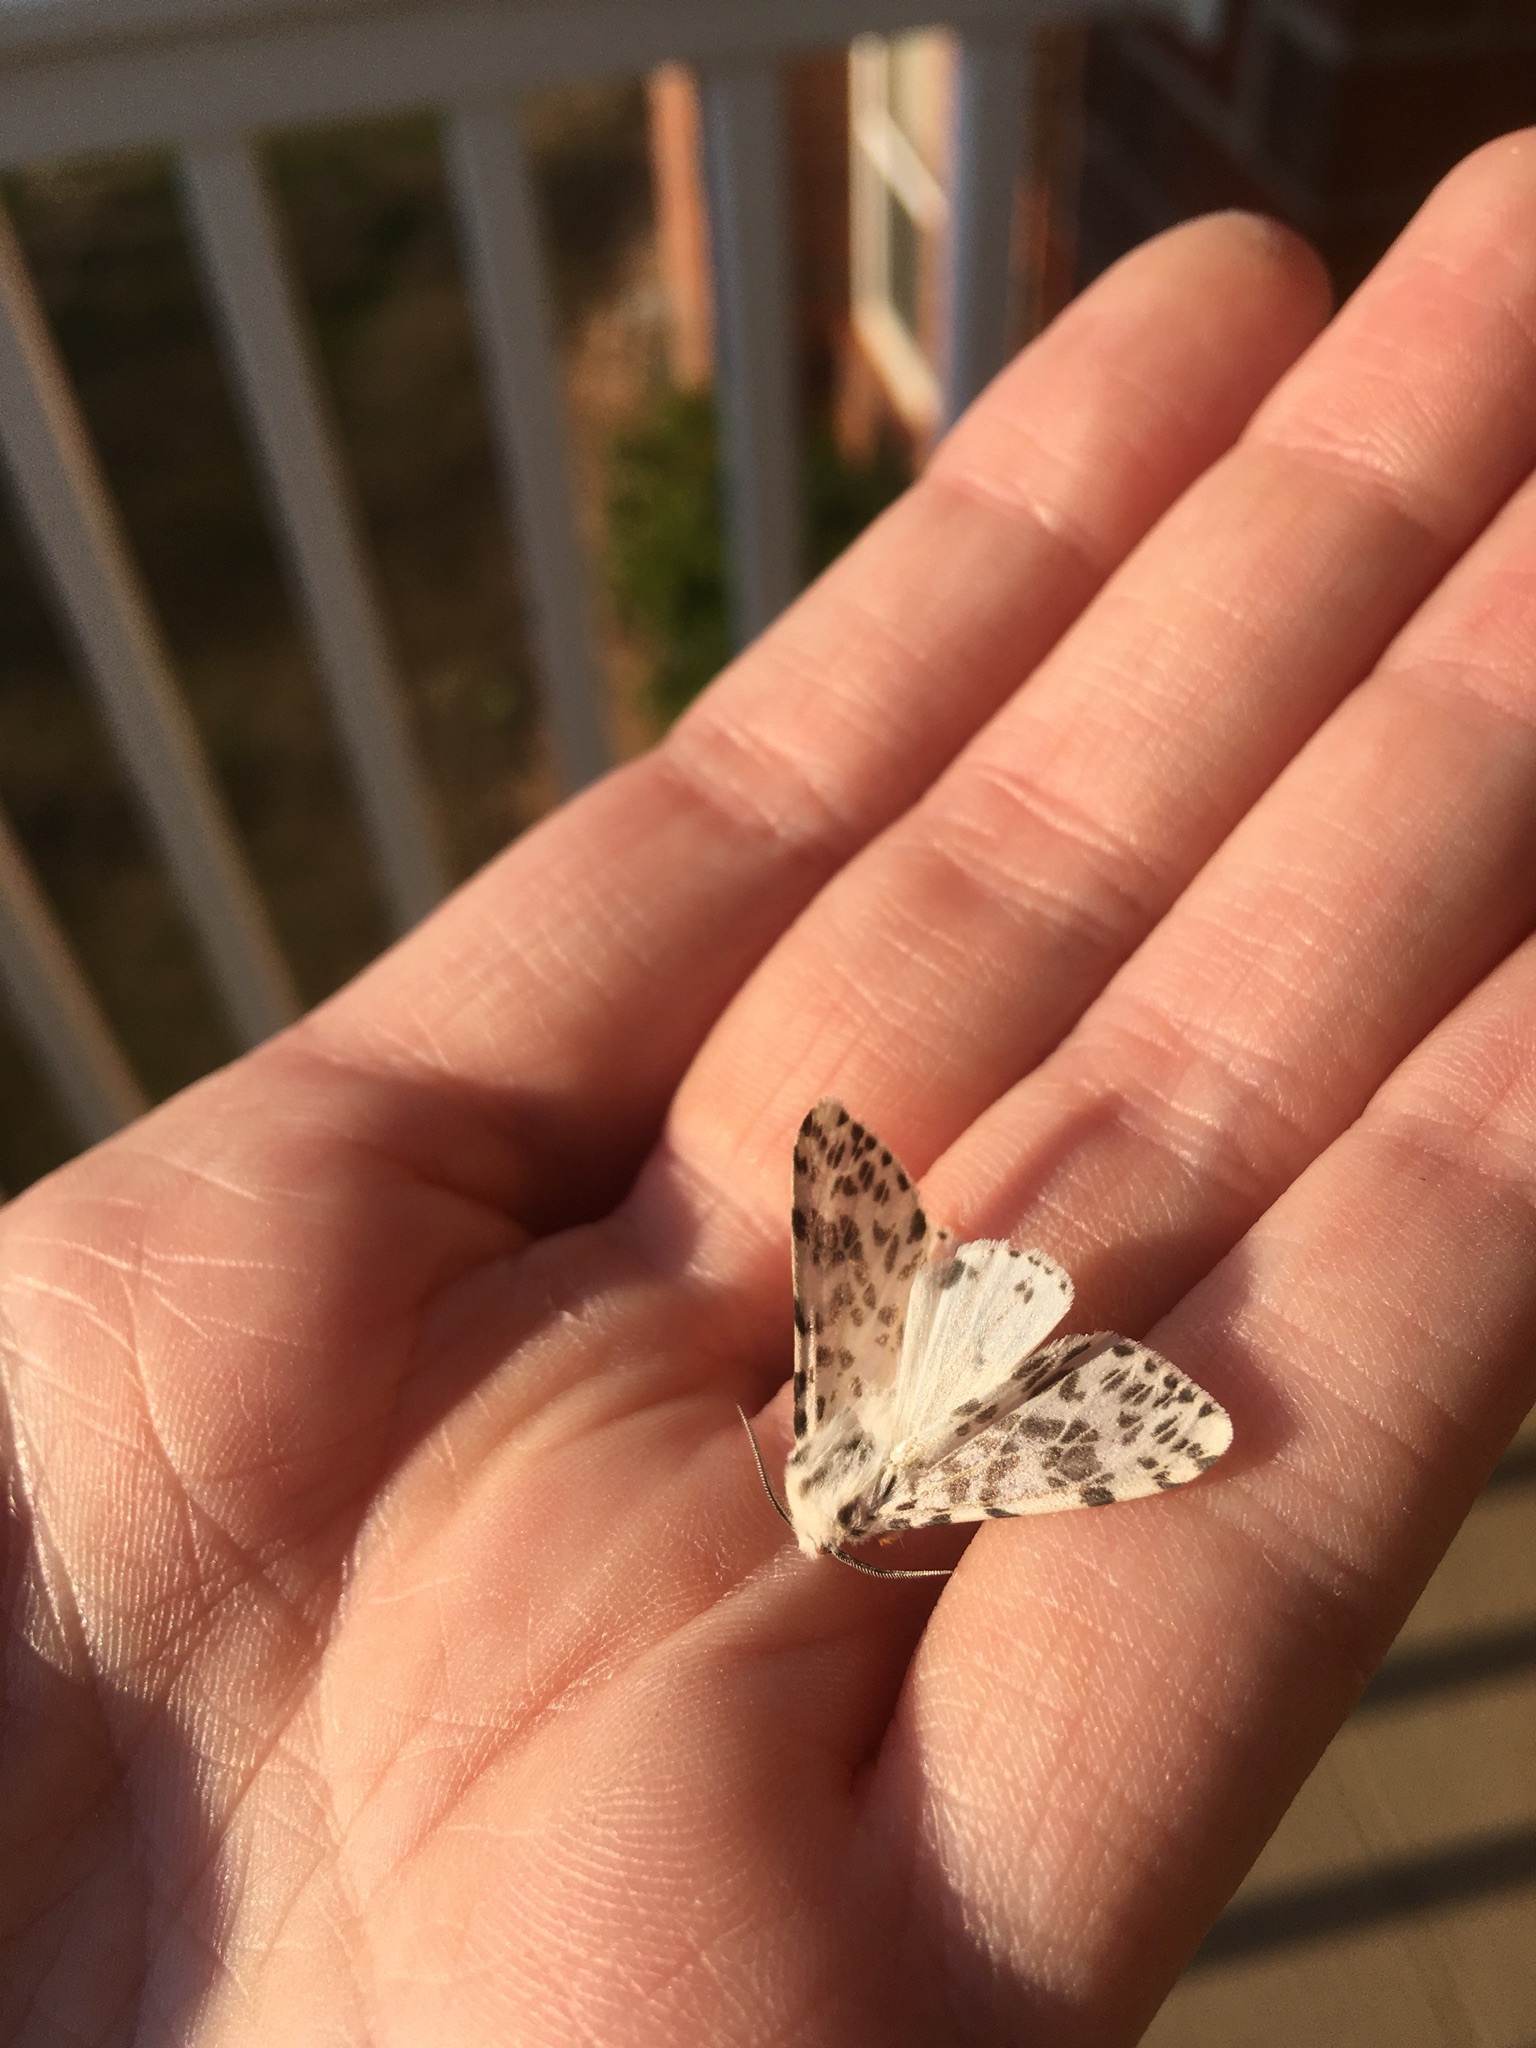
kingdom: Animalia
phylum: Arthropoda
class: Insecta
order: Lepidoptera
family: Erebidae
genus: Hyphantria
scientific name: Hyphantria cunea
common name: American white moth
